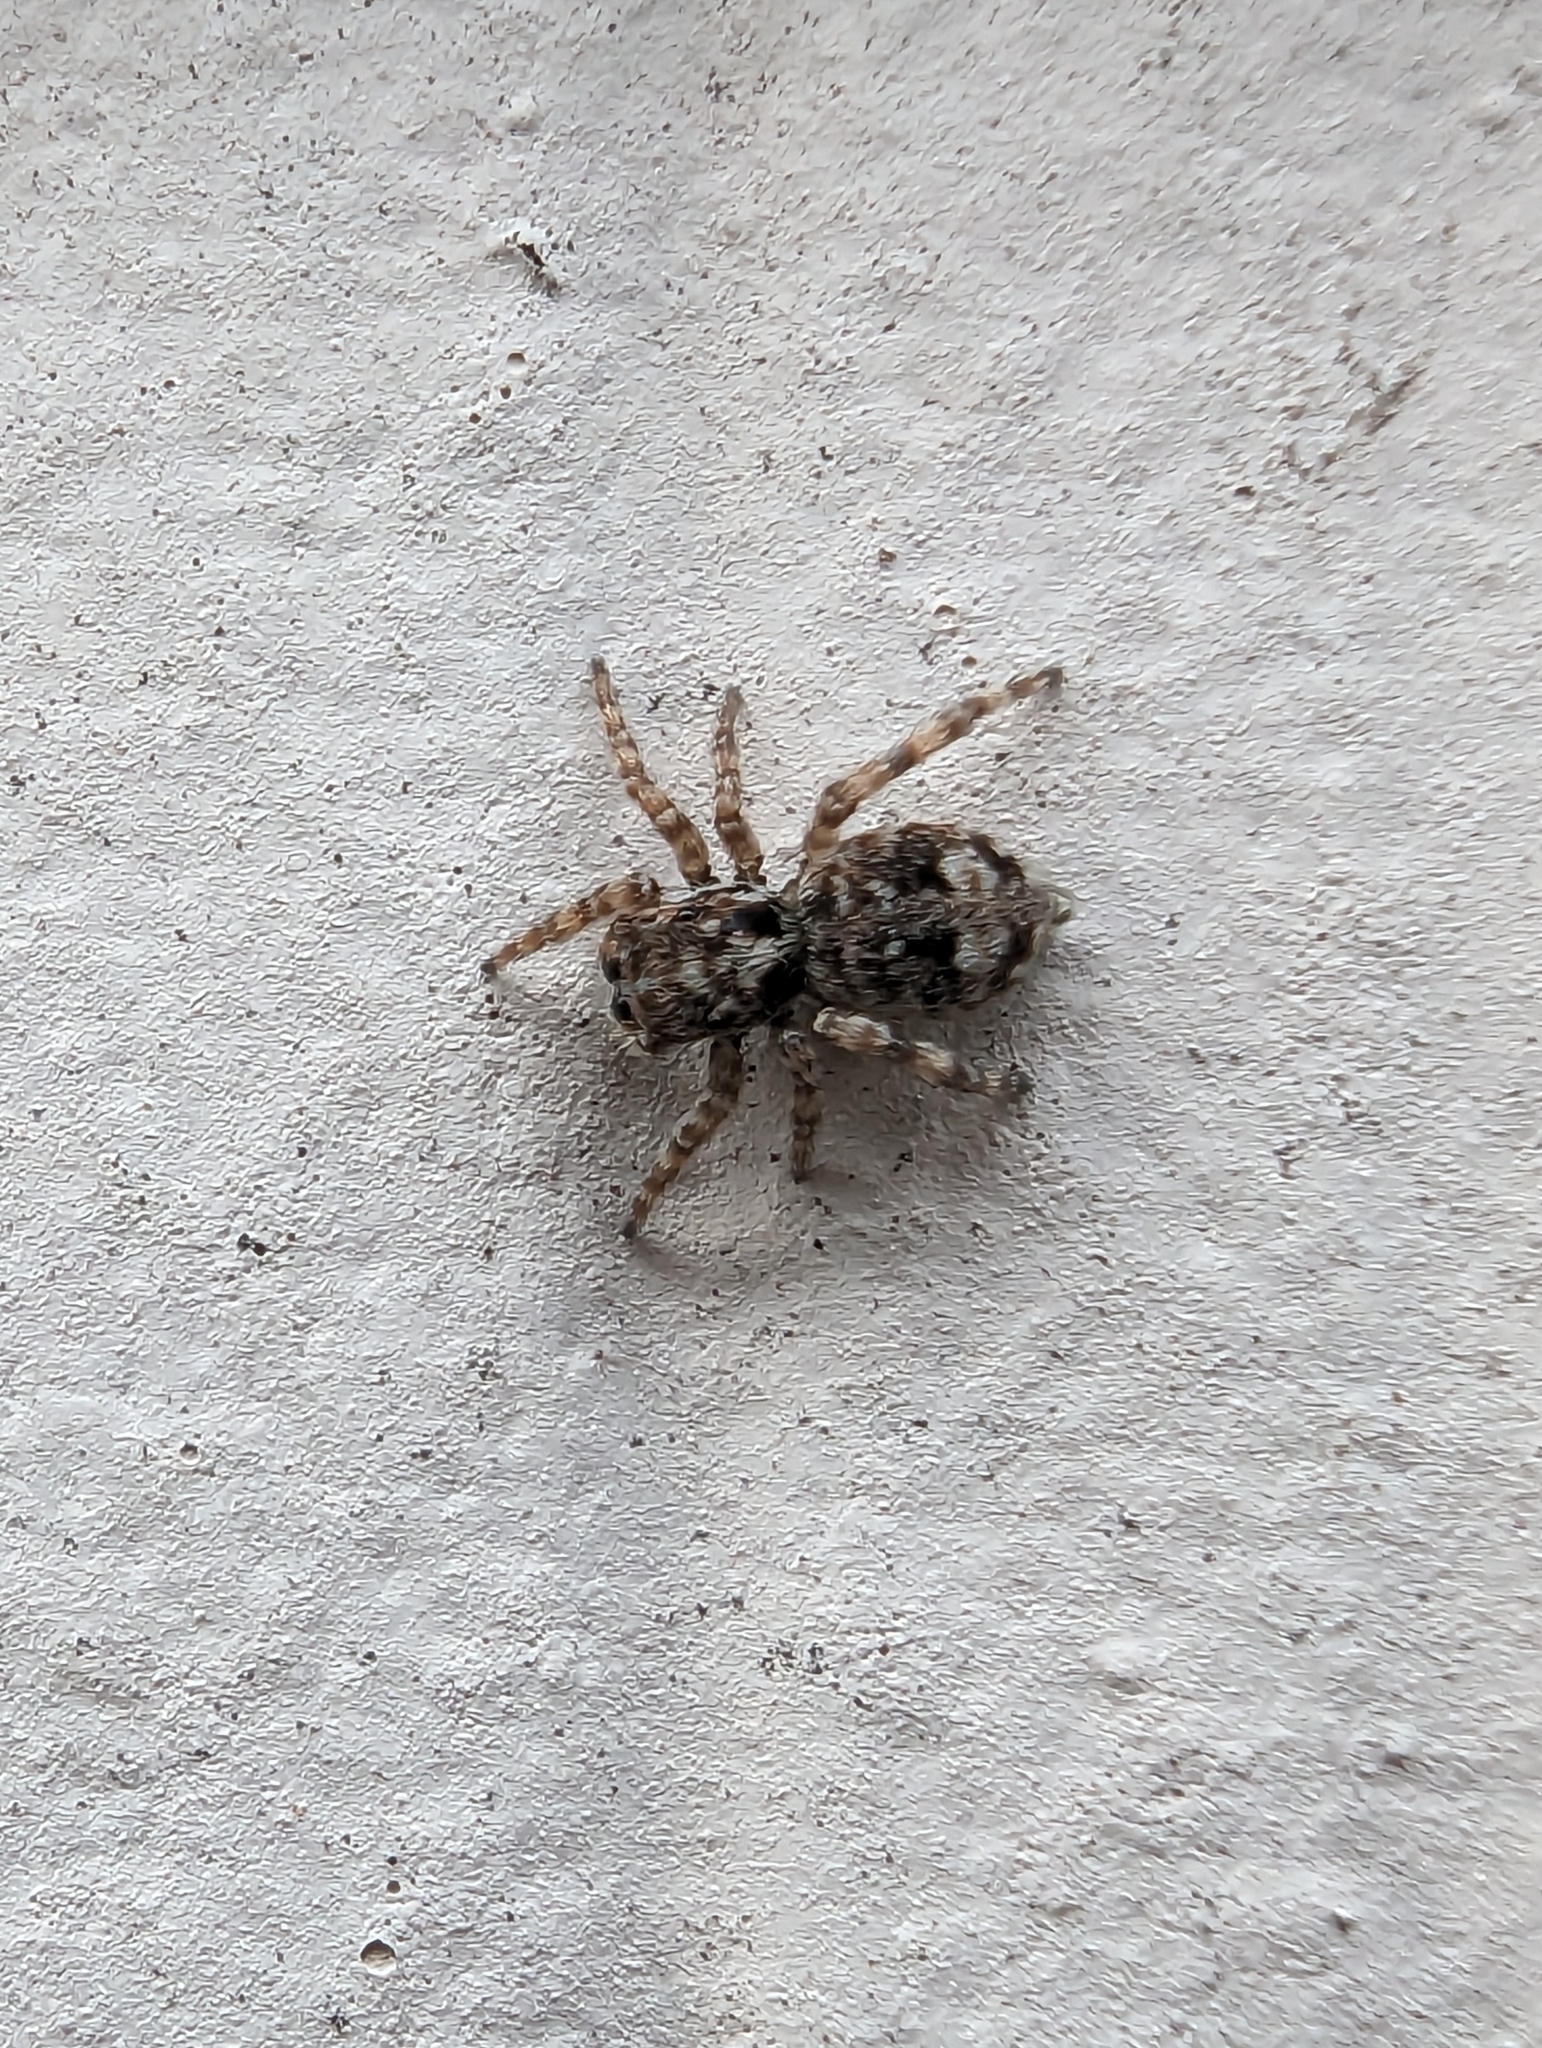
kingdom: Animalia
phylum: Arthropoda
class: Arachnida
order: Araneae
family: Salticidae
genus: Attulus
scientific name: Attulus fasciger
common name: Asiatic wall jumping spider
